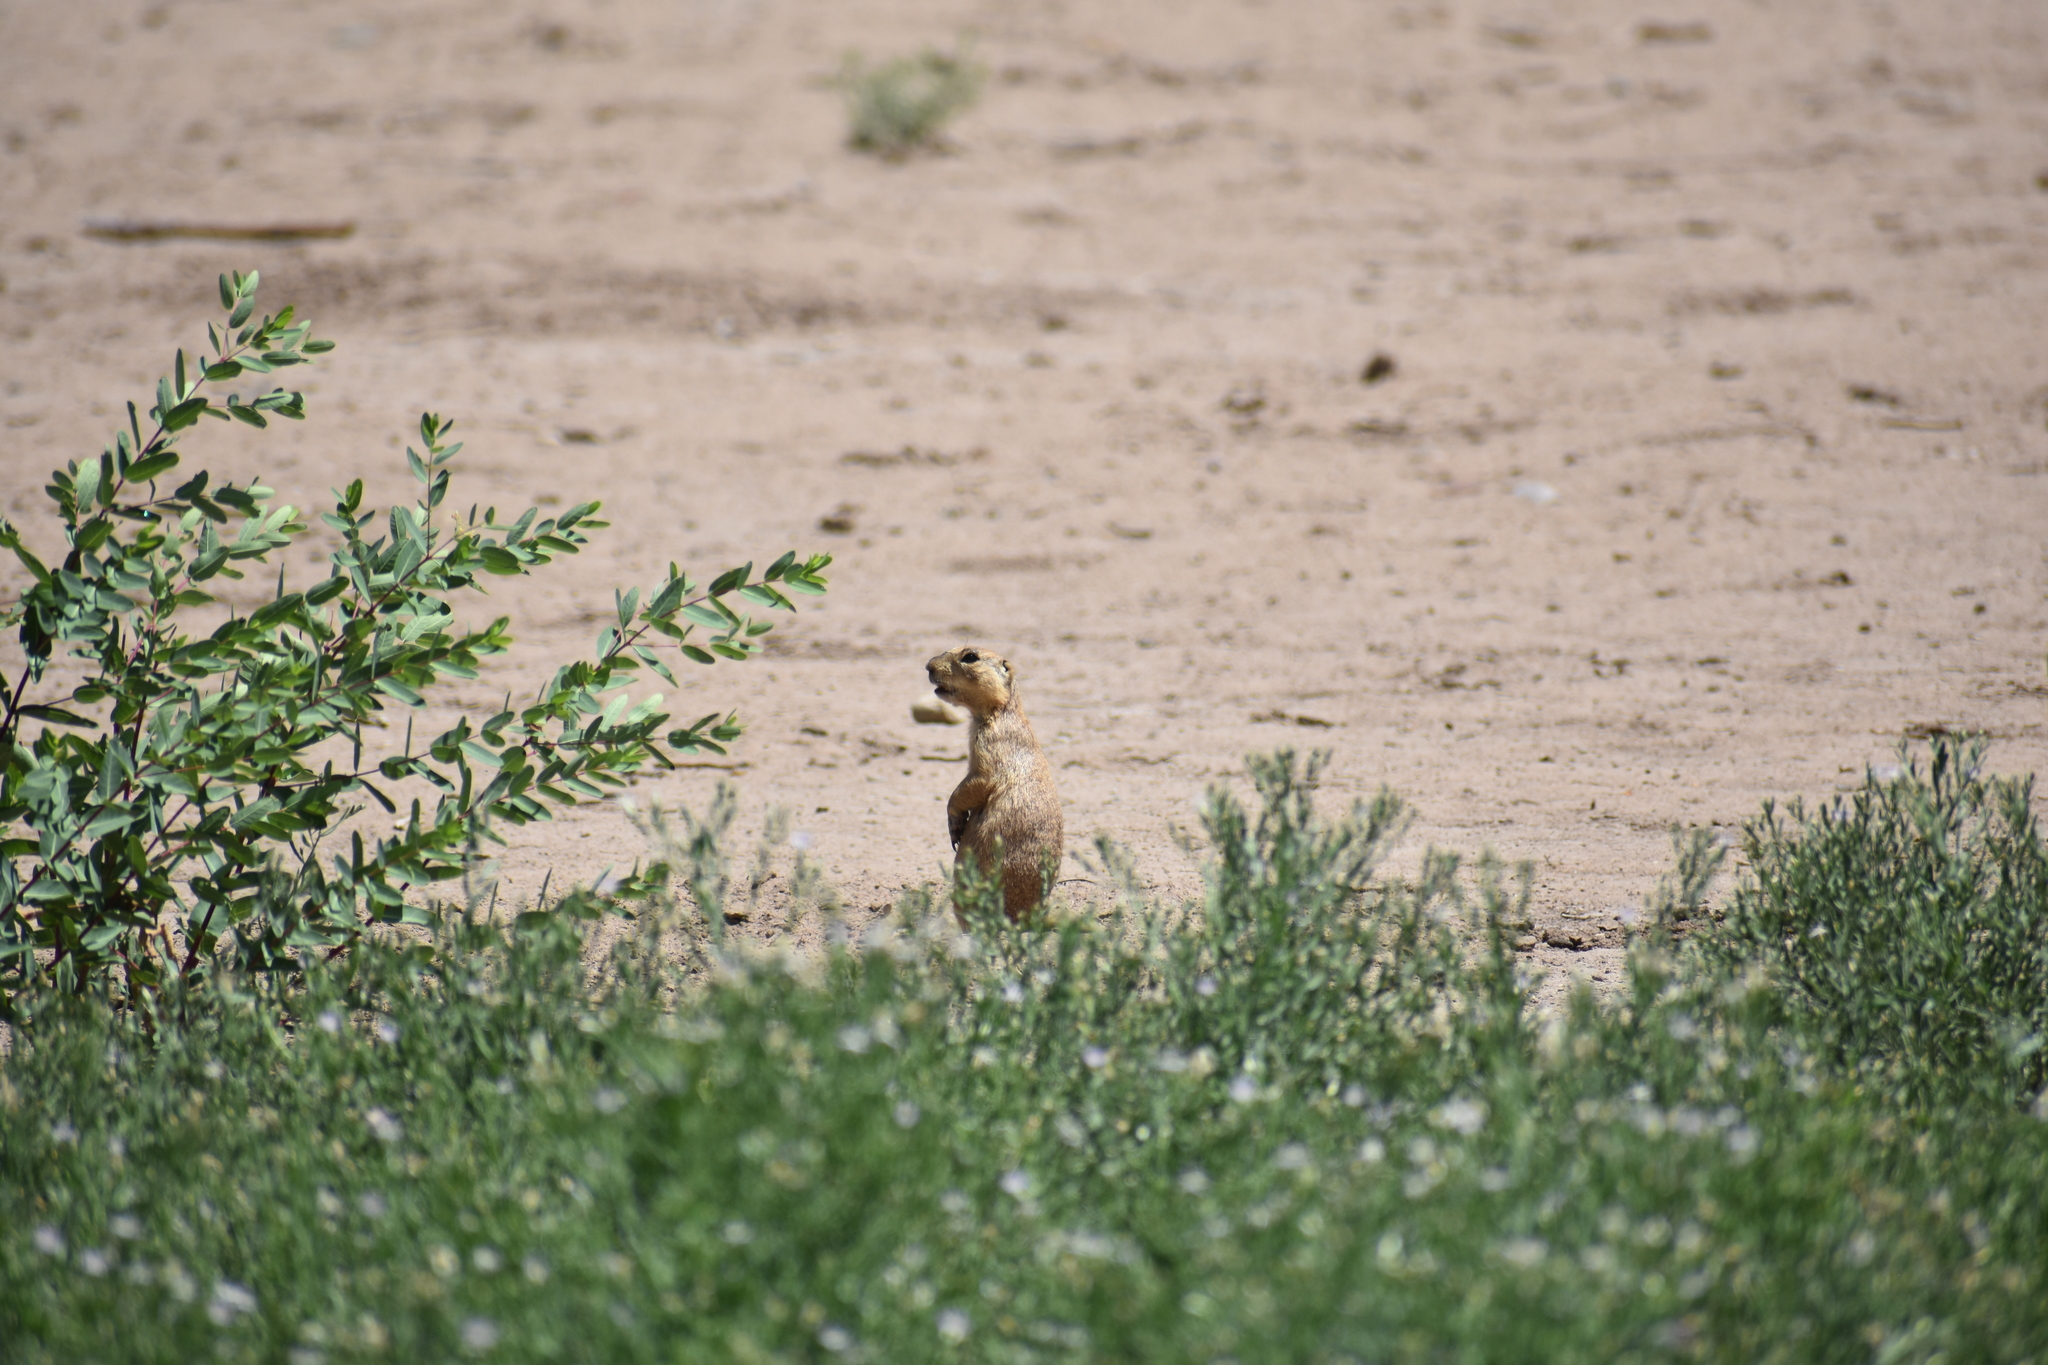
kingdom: Animalia
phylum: Chordata
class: Mammalia
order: Rodentia
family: Sciuridae
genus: Cynomys
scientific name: Cynomys gunnisoni
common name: Gunnison's prairie dog
